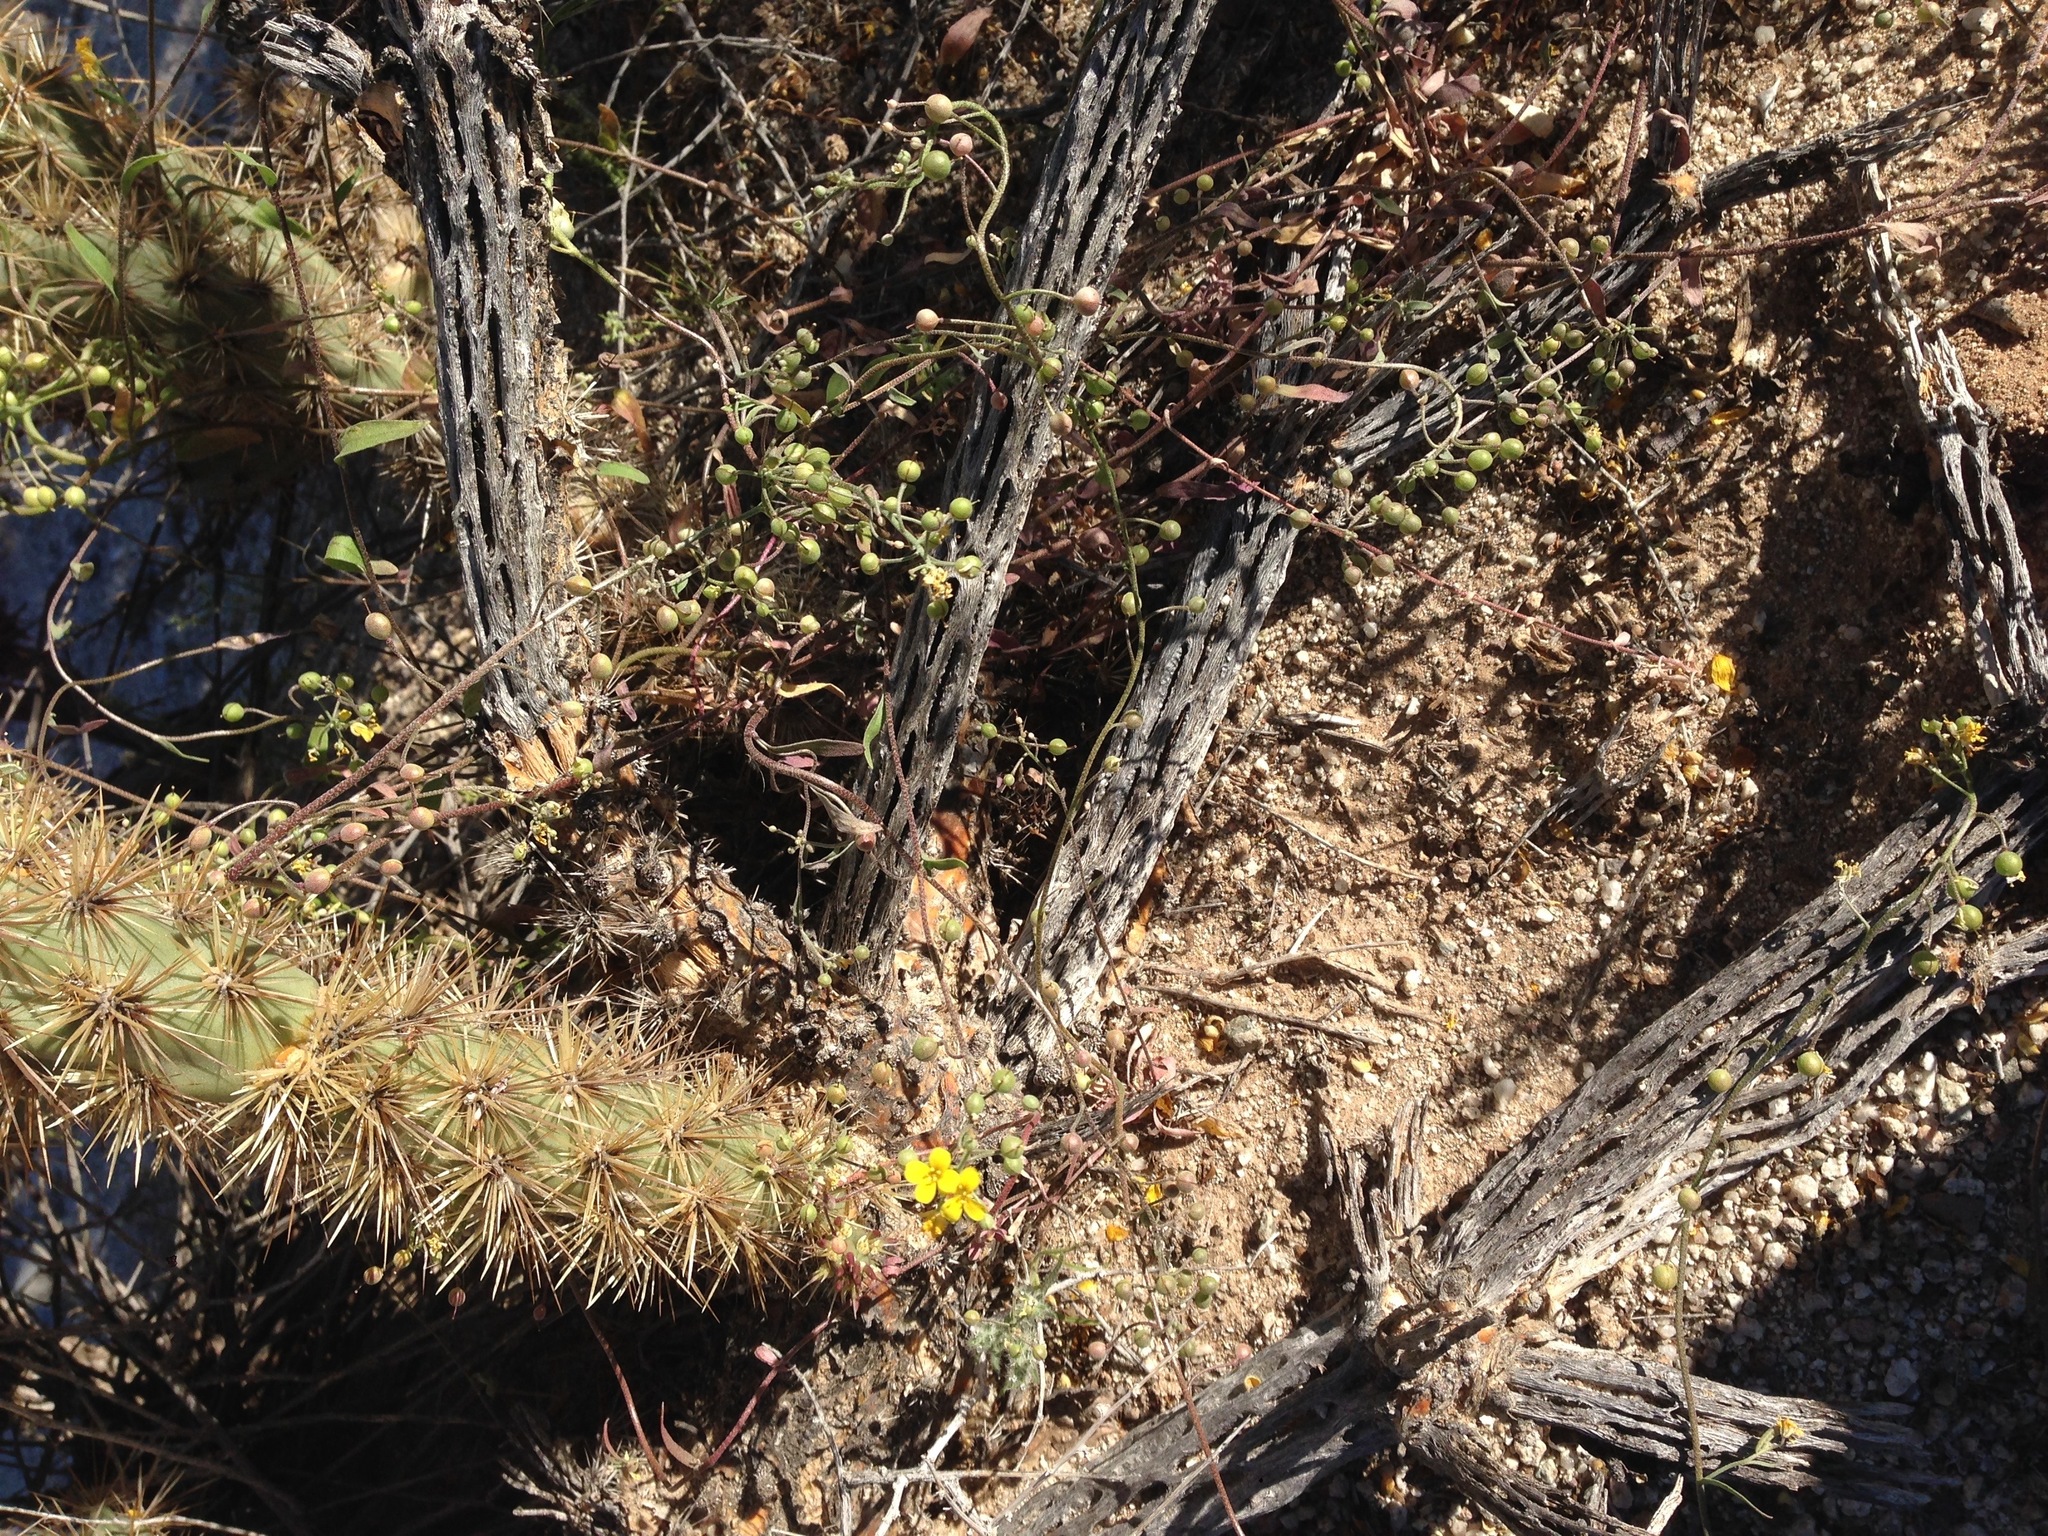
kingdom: Plantae
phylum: Tracheophyta
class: Magnoliopsida
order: Brassicales
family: Brassicaceae
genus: Physaria
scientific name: Physaria tenella
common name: Moapa bladderpod
